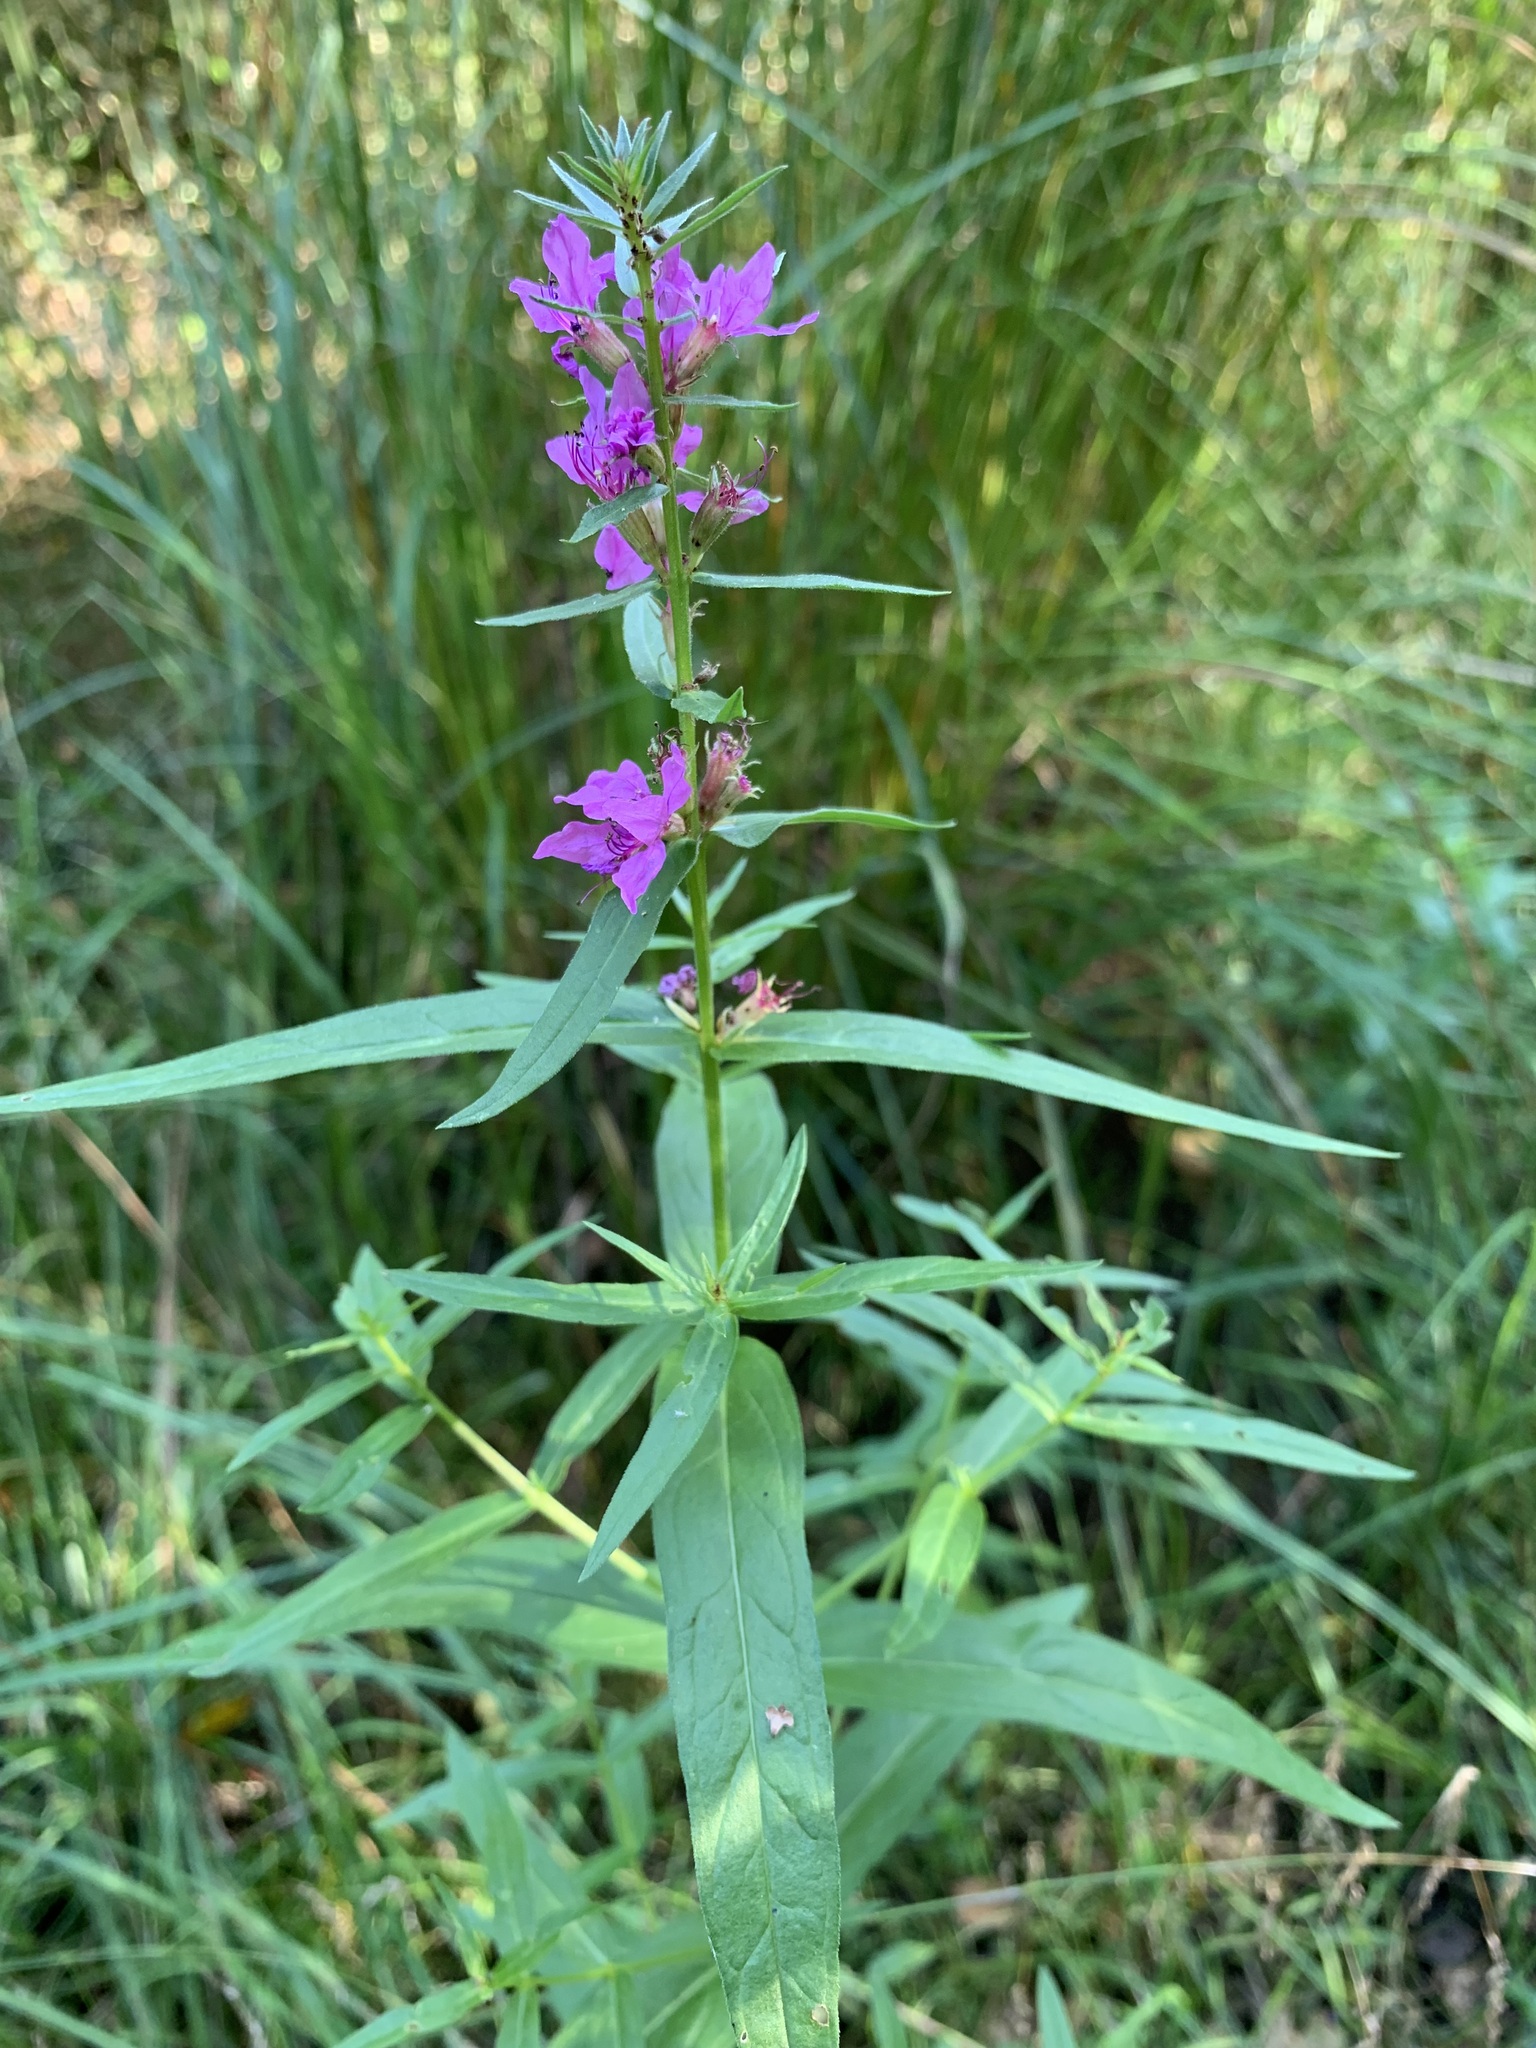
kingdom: Plantae
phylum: Tracheophyta
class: Magnoliopsida
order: Myrtales
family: Lythraceae
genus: Lythrum
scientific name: Lythrum salicaria
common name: Purple loosestrife
